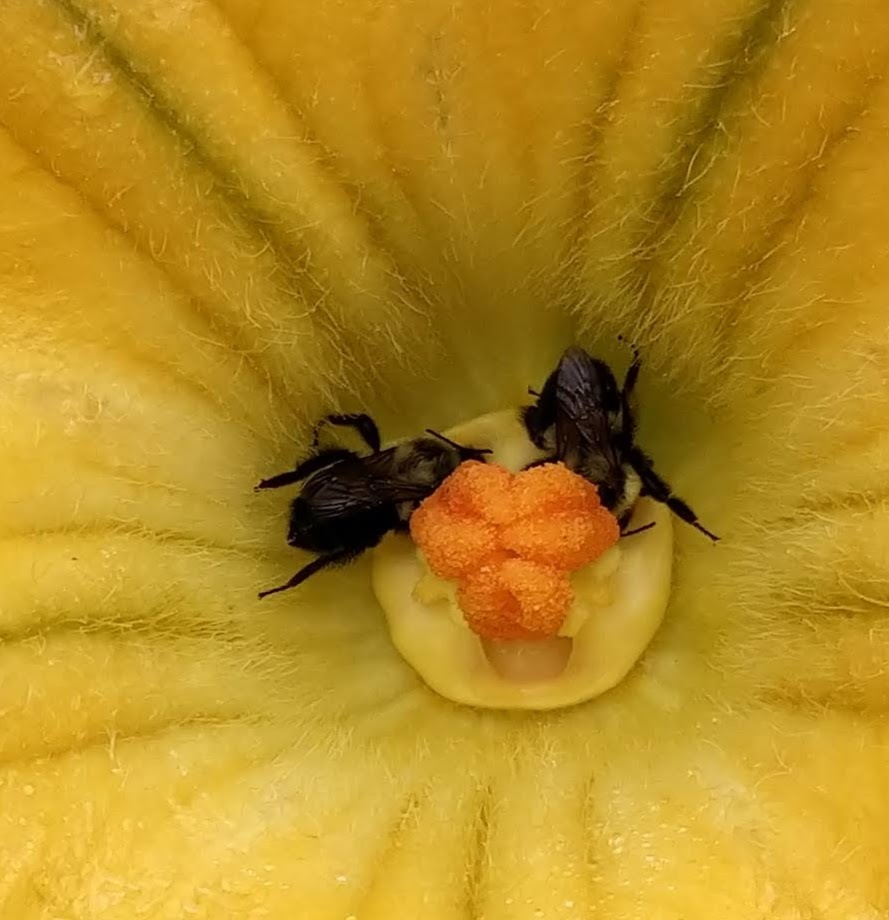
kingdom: Animalia
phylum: Arthropoda
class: Insecta
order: Hymenoptera
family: Apidae
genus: Bombus
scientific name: Bombus impatiens
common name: Common eastern bumble bee
